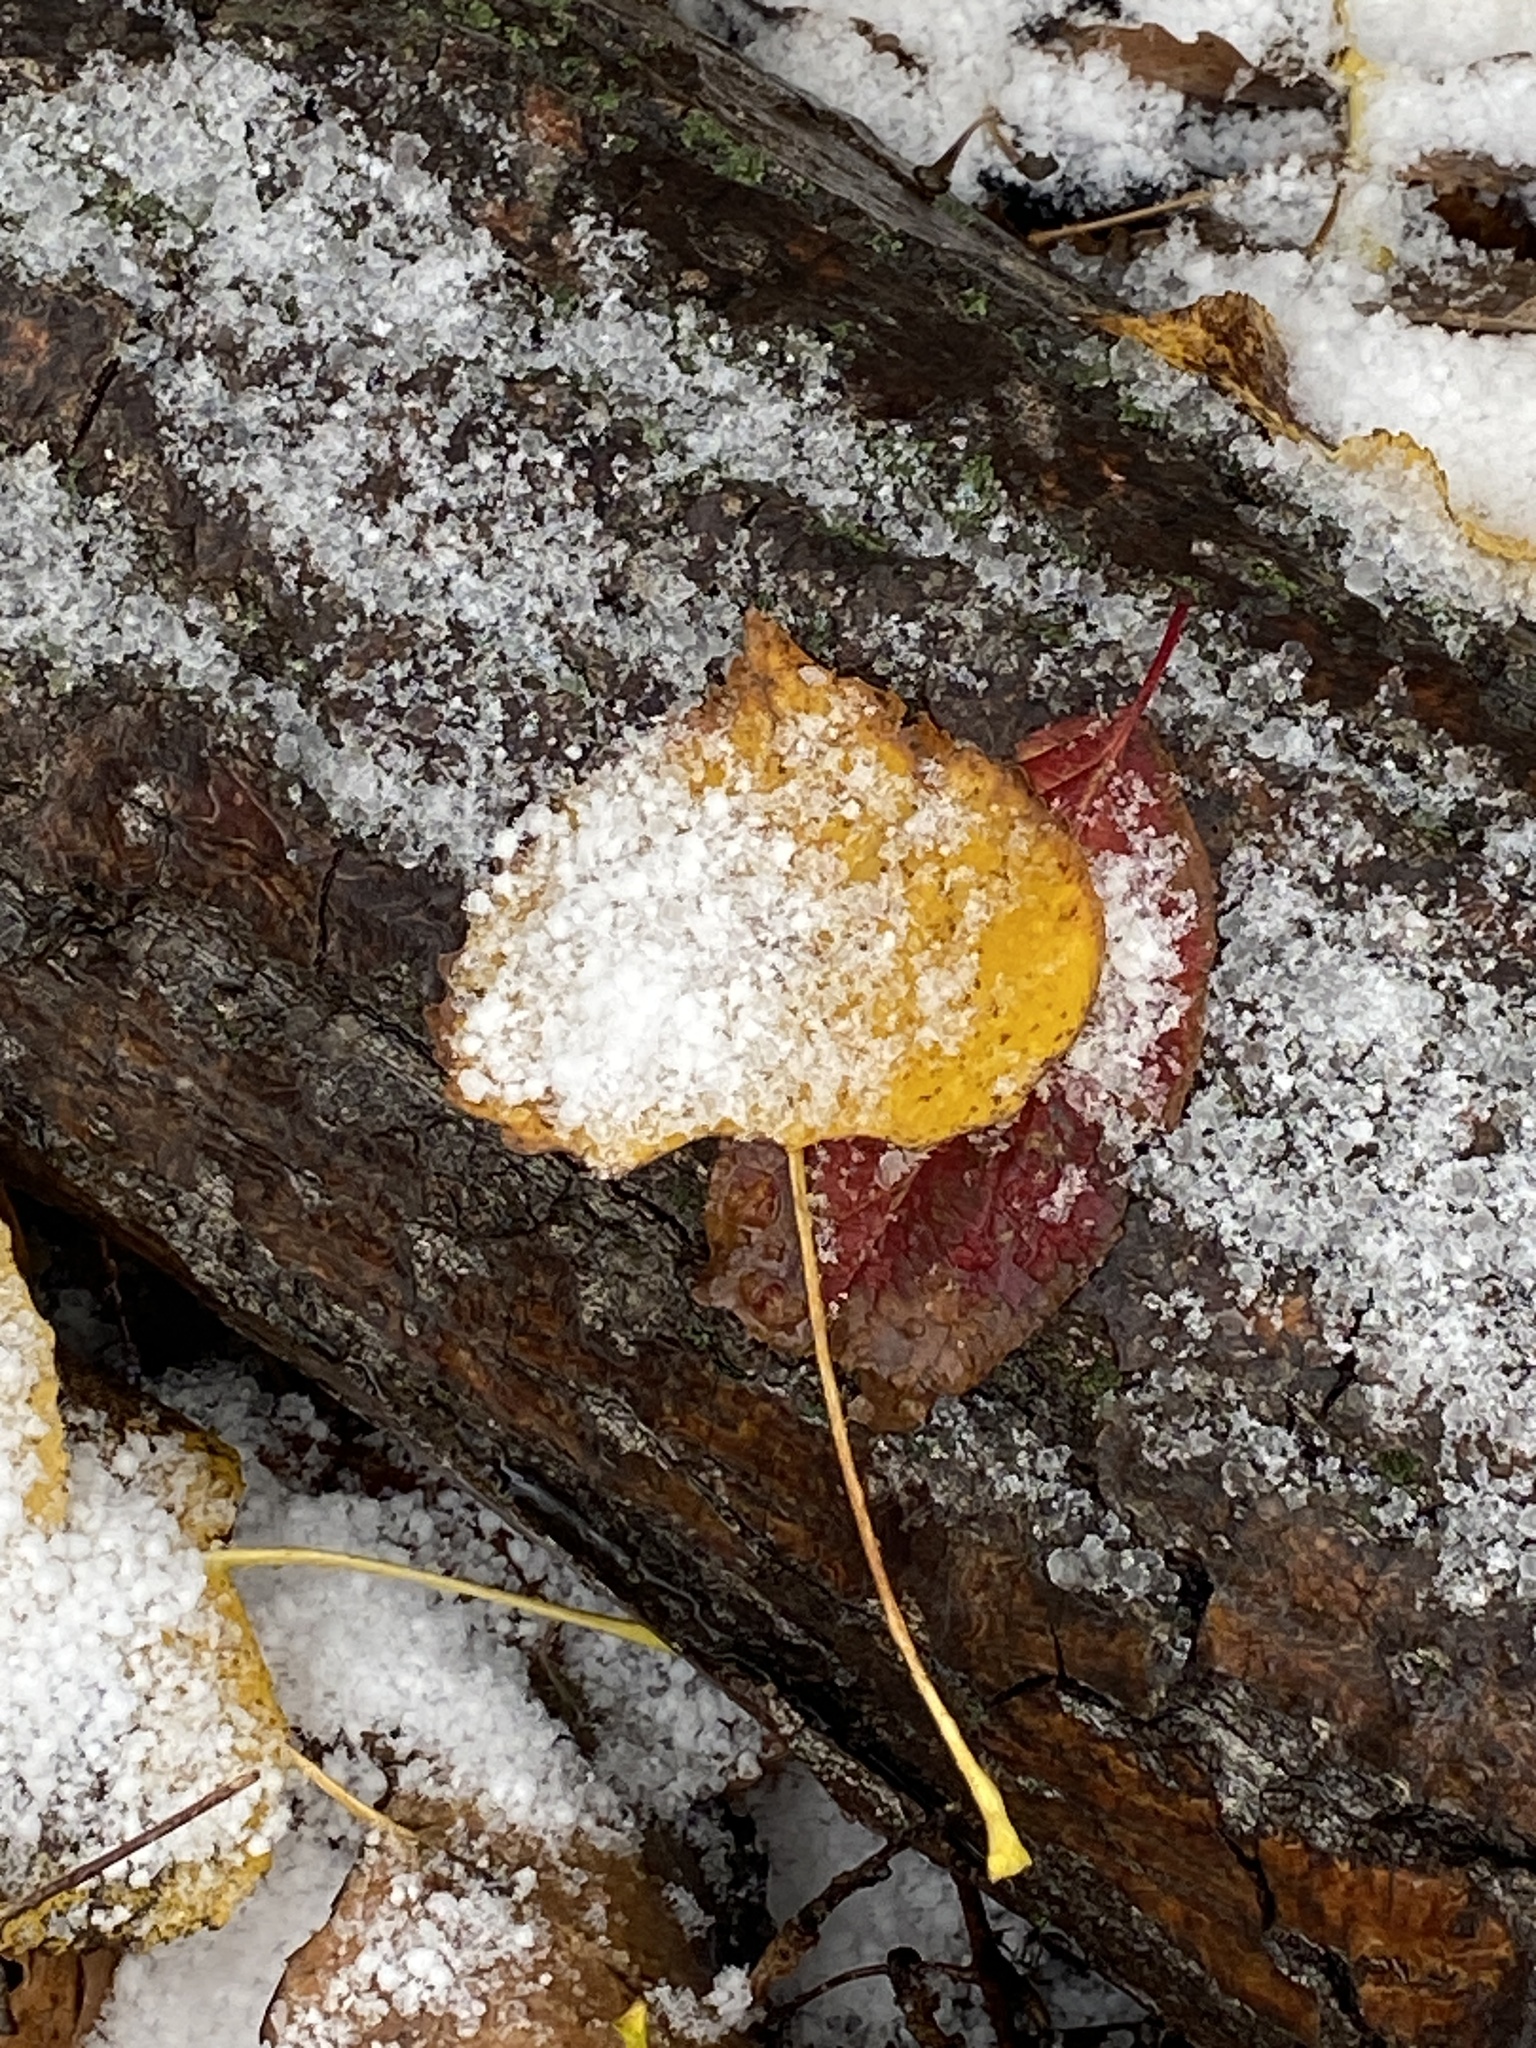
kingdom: Plantae
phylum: Tracheophyta
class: Magnoliopsida
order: Malpighiales
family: Salicaceae
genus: Populus
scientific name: Populus deltoides
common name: Eastern cottonwood
